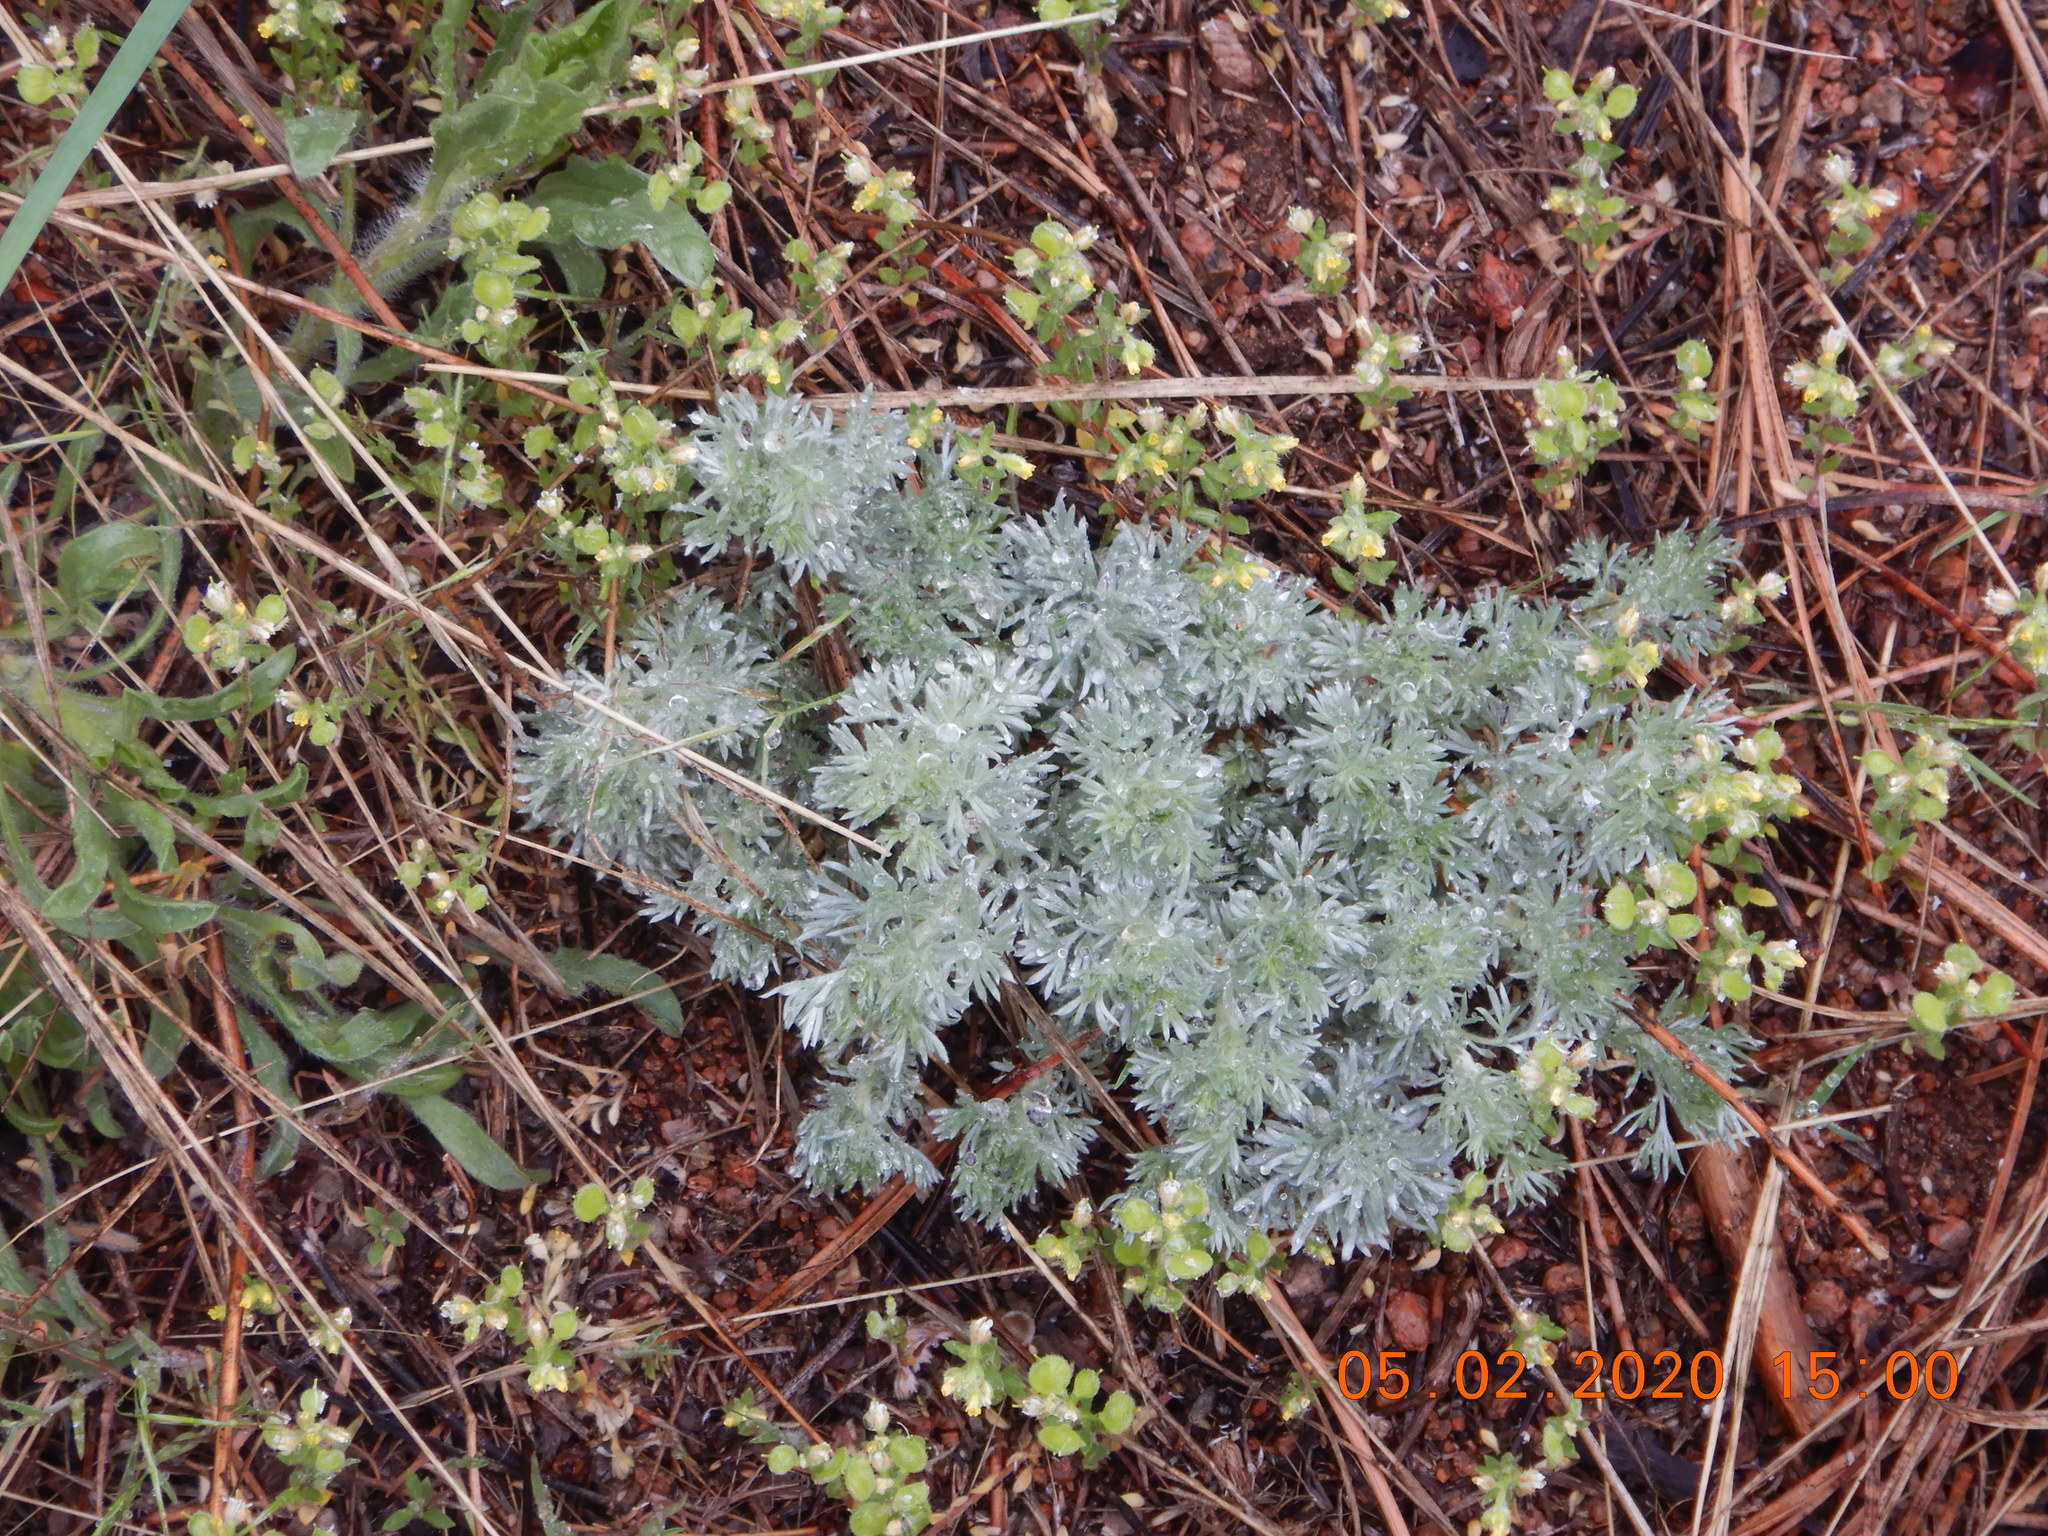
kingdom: Plantae
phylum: Tracheophyta
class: Magnoliopsida
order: Asterales
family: Asteraceae
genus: Artemisia
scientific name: Artemisia frigida
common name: Prairie sagewort
